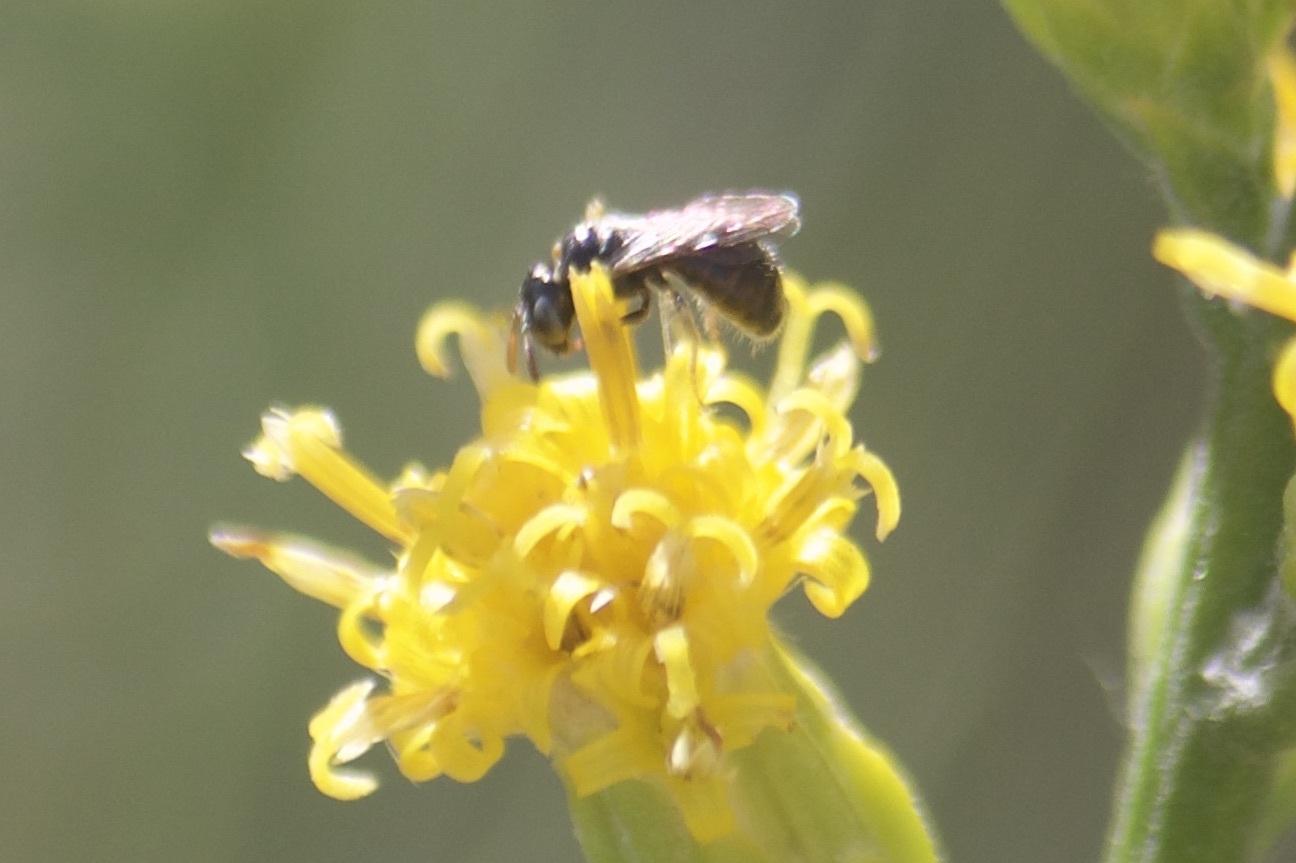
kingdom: Animalia
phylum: Arthropoda
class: Insecta
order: Hymenoptera
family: Apidae
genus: Ceratina
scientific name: Ceratina arizonensis
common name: Arizona small carpenter bee
